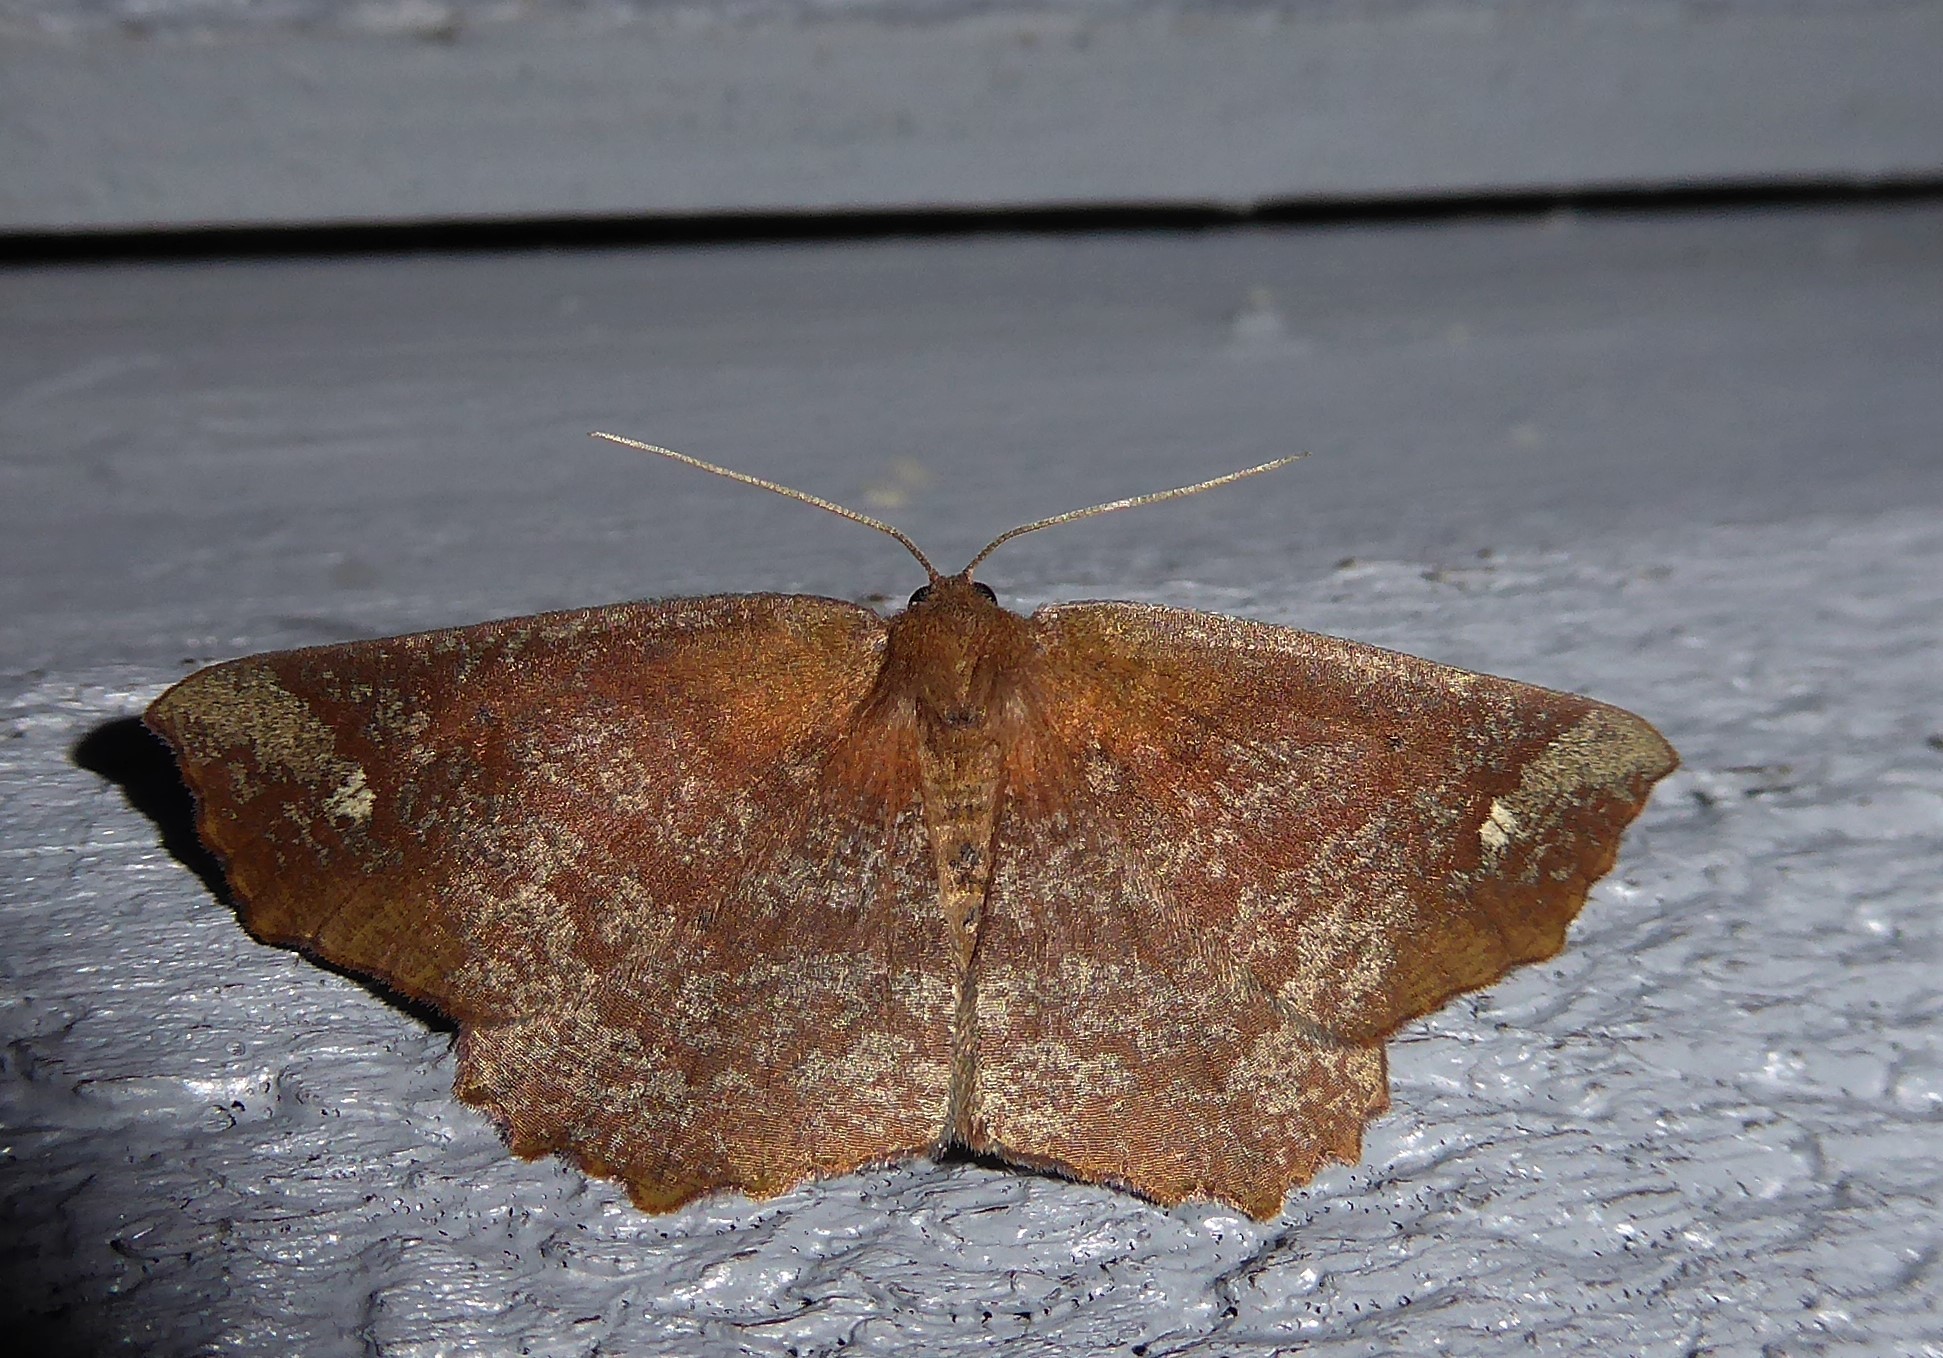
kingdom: Animalia
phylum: Arthropoda
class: Insecta
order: Lepidoptera
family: Geometridae
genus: Xyridacma
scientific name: Xyridacma ustaria
